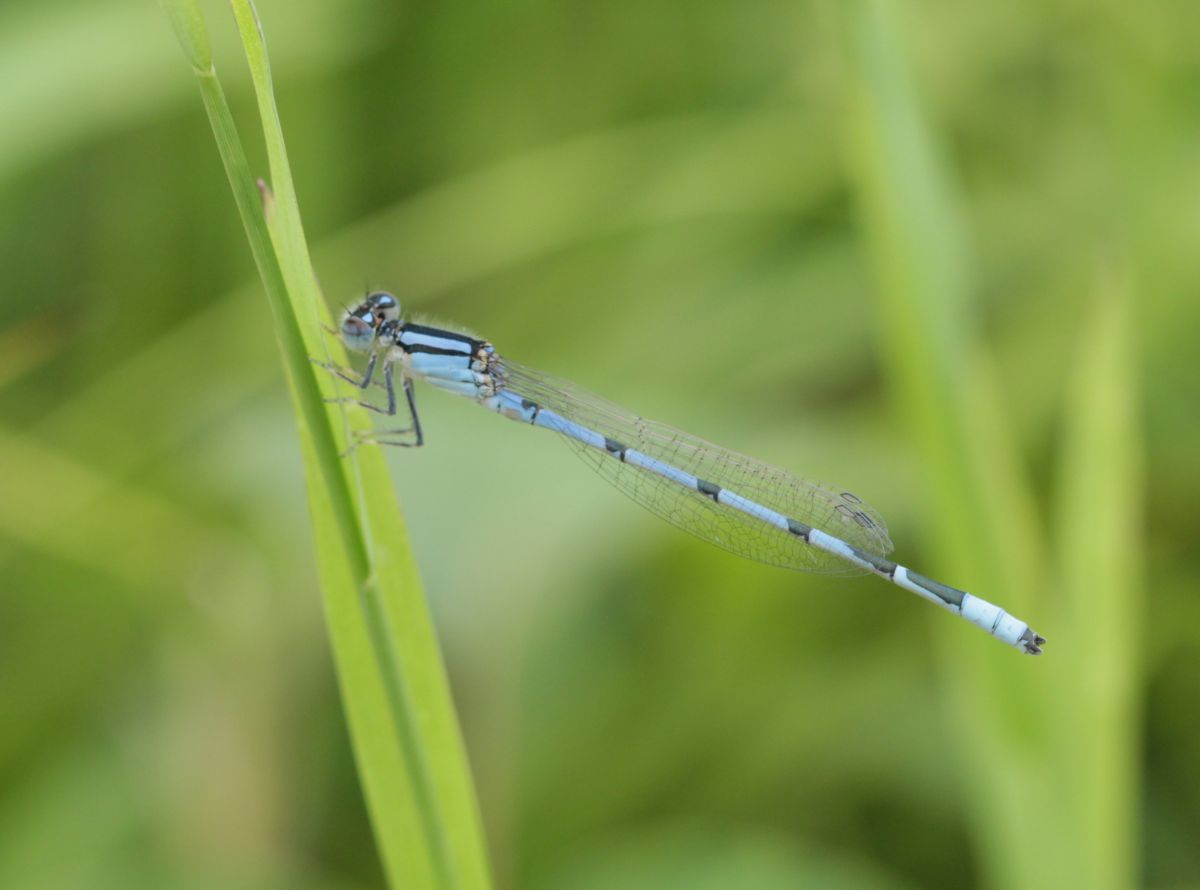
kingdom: Animalia
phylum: Arthropoda
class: Insecta
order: Odonata
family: Coenagrionidae
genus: Enallagma
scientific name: Enallagma civile
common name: Damselfly
